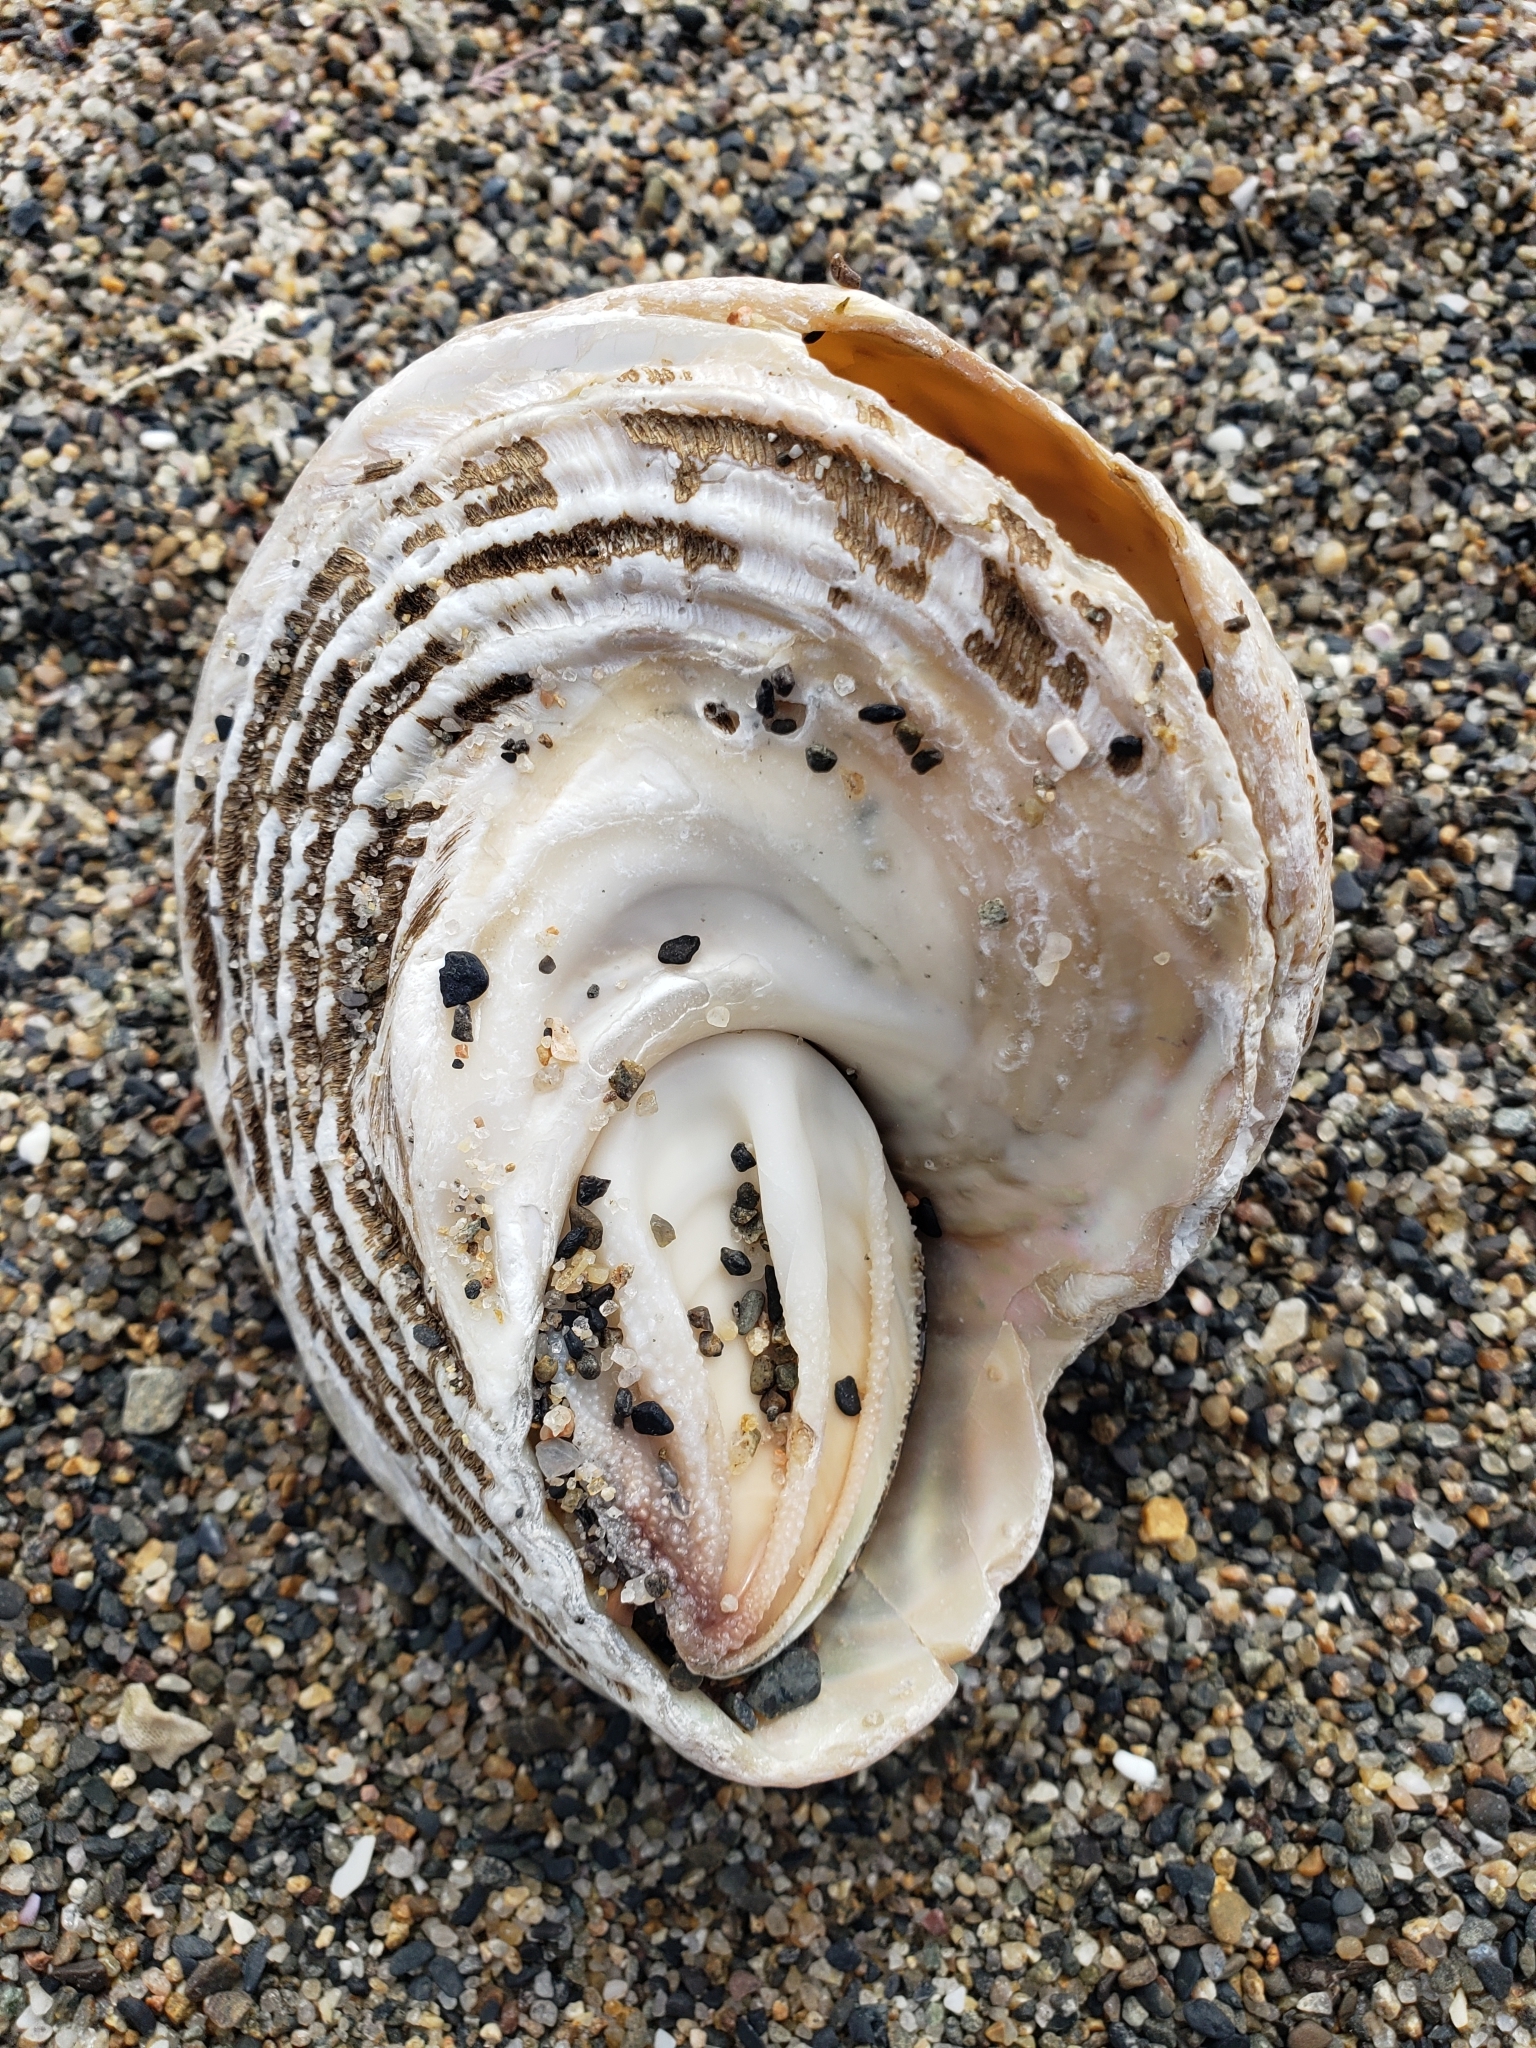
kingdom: Animalia
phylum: Mollusca
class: Gastropoda
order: Trochida
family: Turbinidae
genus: Megastraea
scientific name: Megastraea undosa
